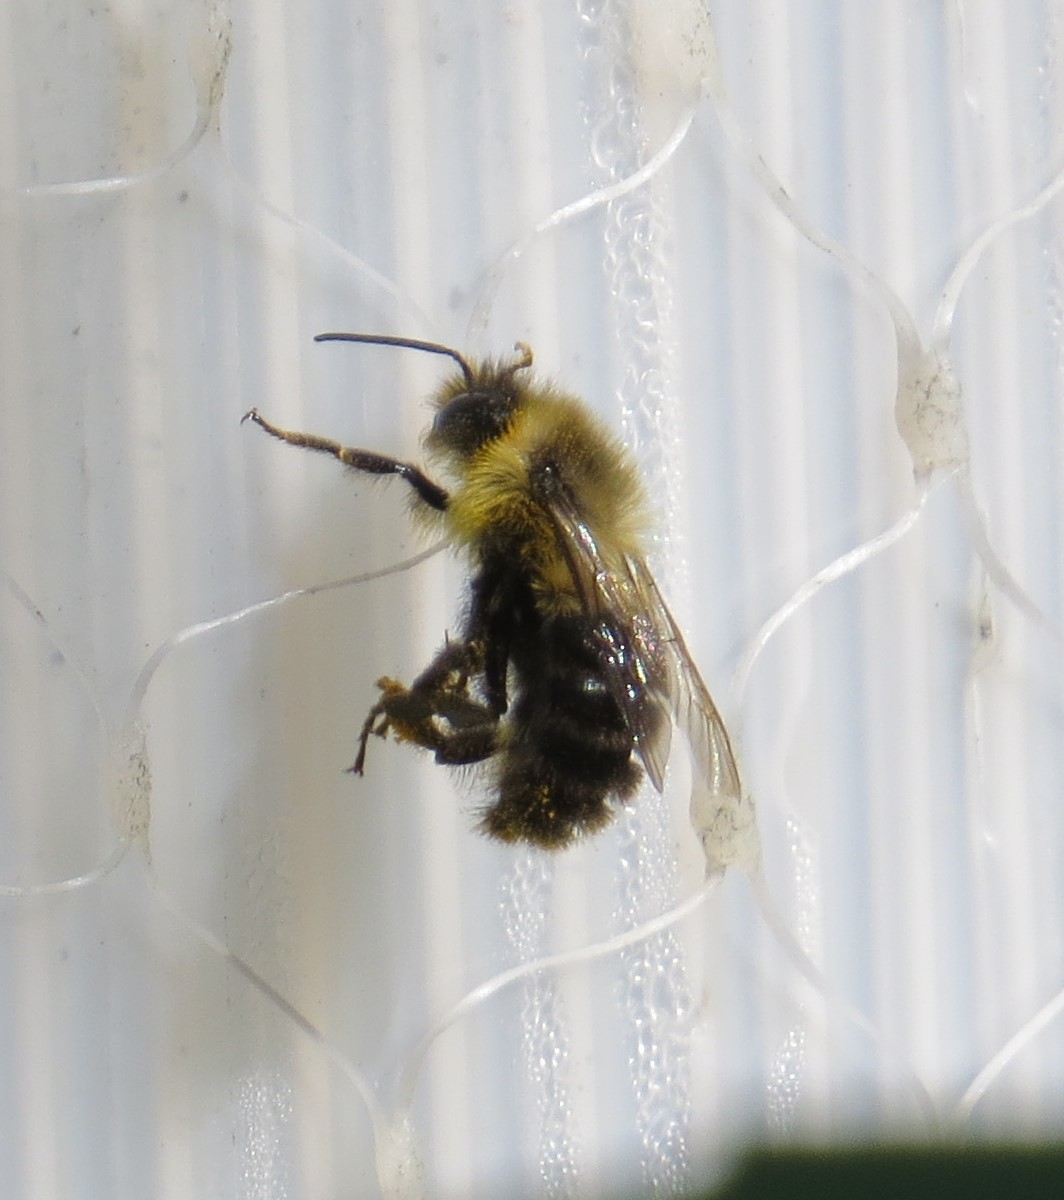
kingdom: Animalia
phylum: Arthropoda
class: Insecta
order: Hymenoptera
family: Apidae
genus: Bombus
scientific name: Bombus impatiens
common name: Common eastern bumble bee
